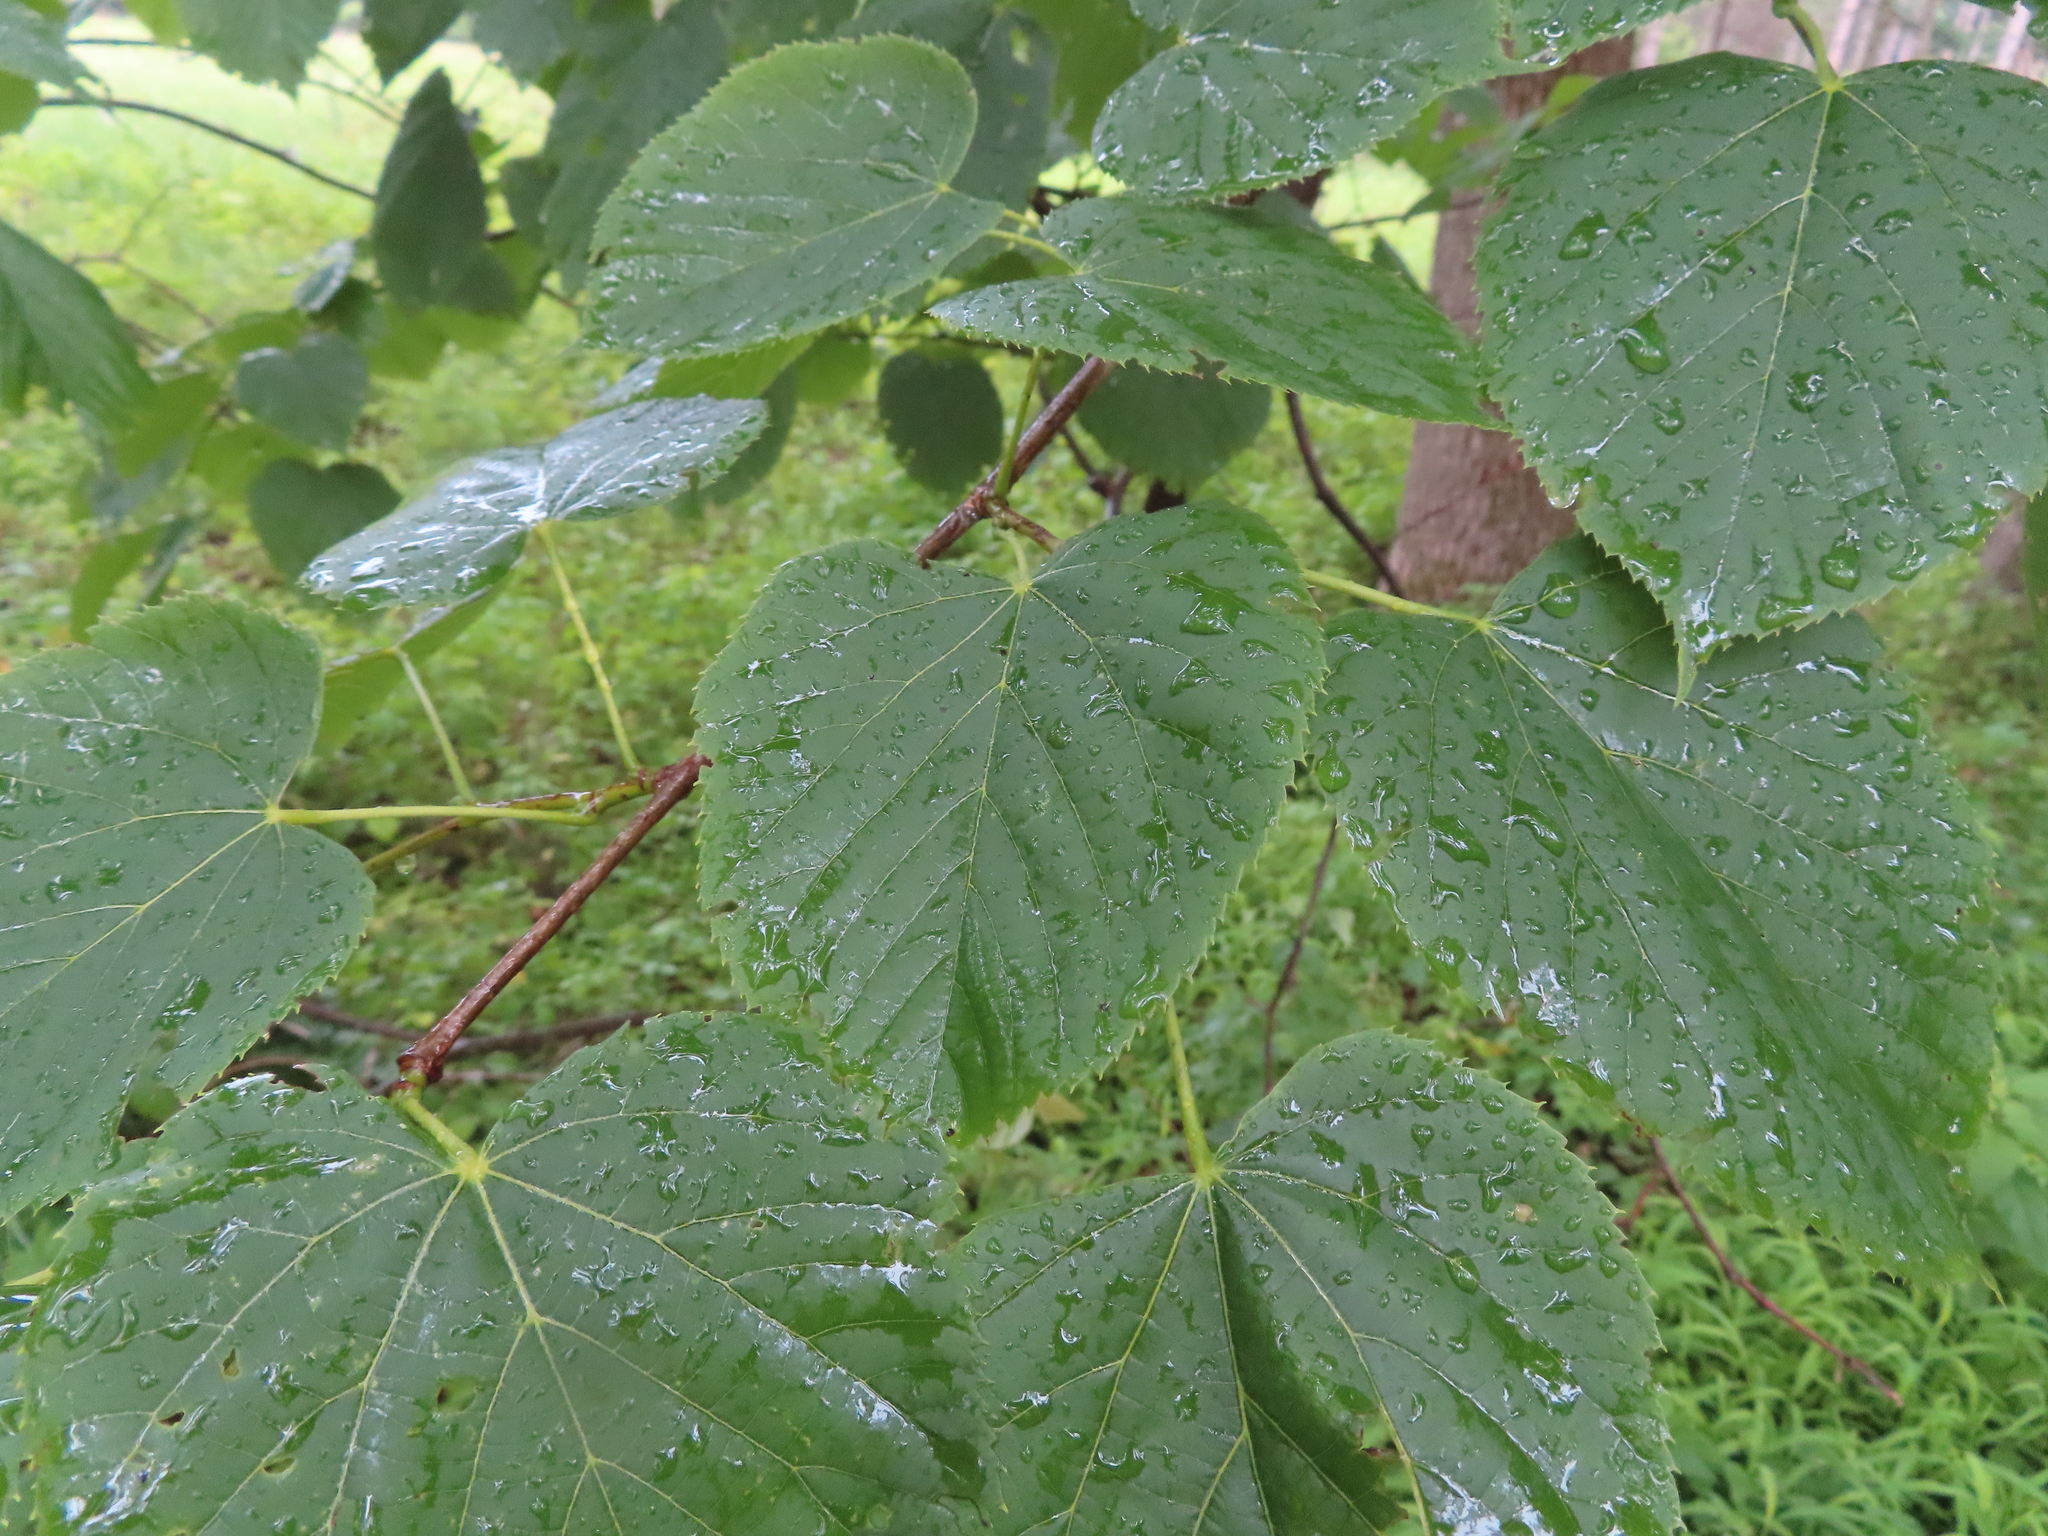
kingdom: Plantae
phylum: Tracheophyta
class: Magnoliopsida
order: Malvales
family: Malvaceae
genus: Tilia
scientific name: Tilia americana
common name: Basswood
